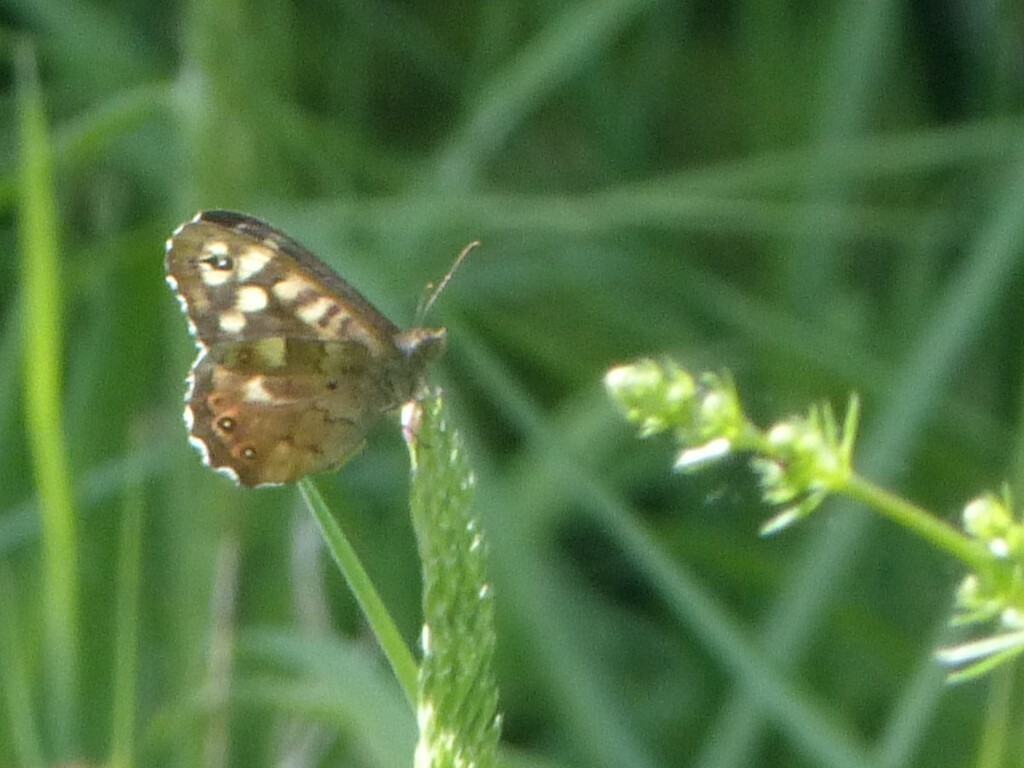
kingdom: Animalia
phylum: Arthropoda
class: Insecta
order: Lepidoptera
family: Nymphalidae
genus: Pararge
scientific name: Pararge aegeria
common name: Speckled wood
